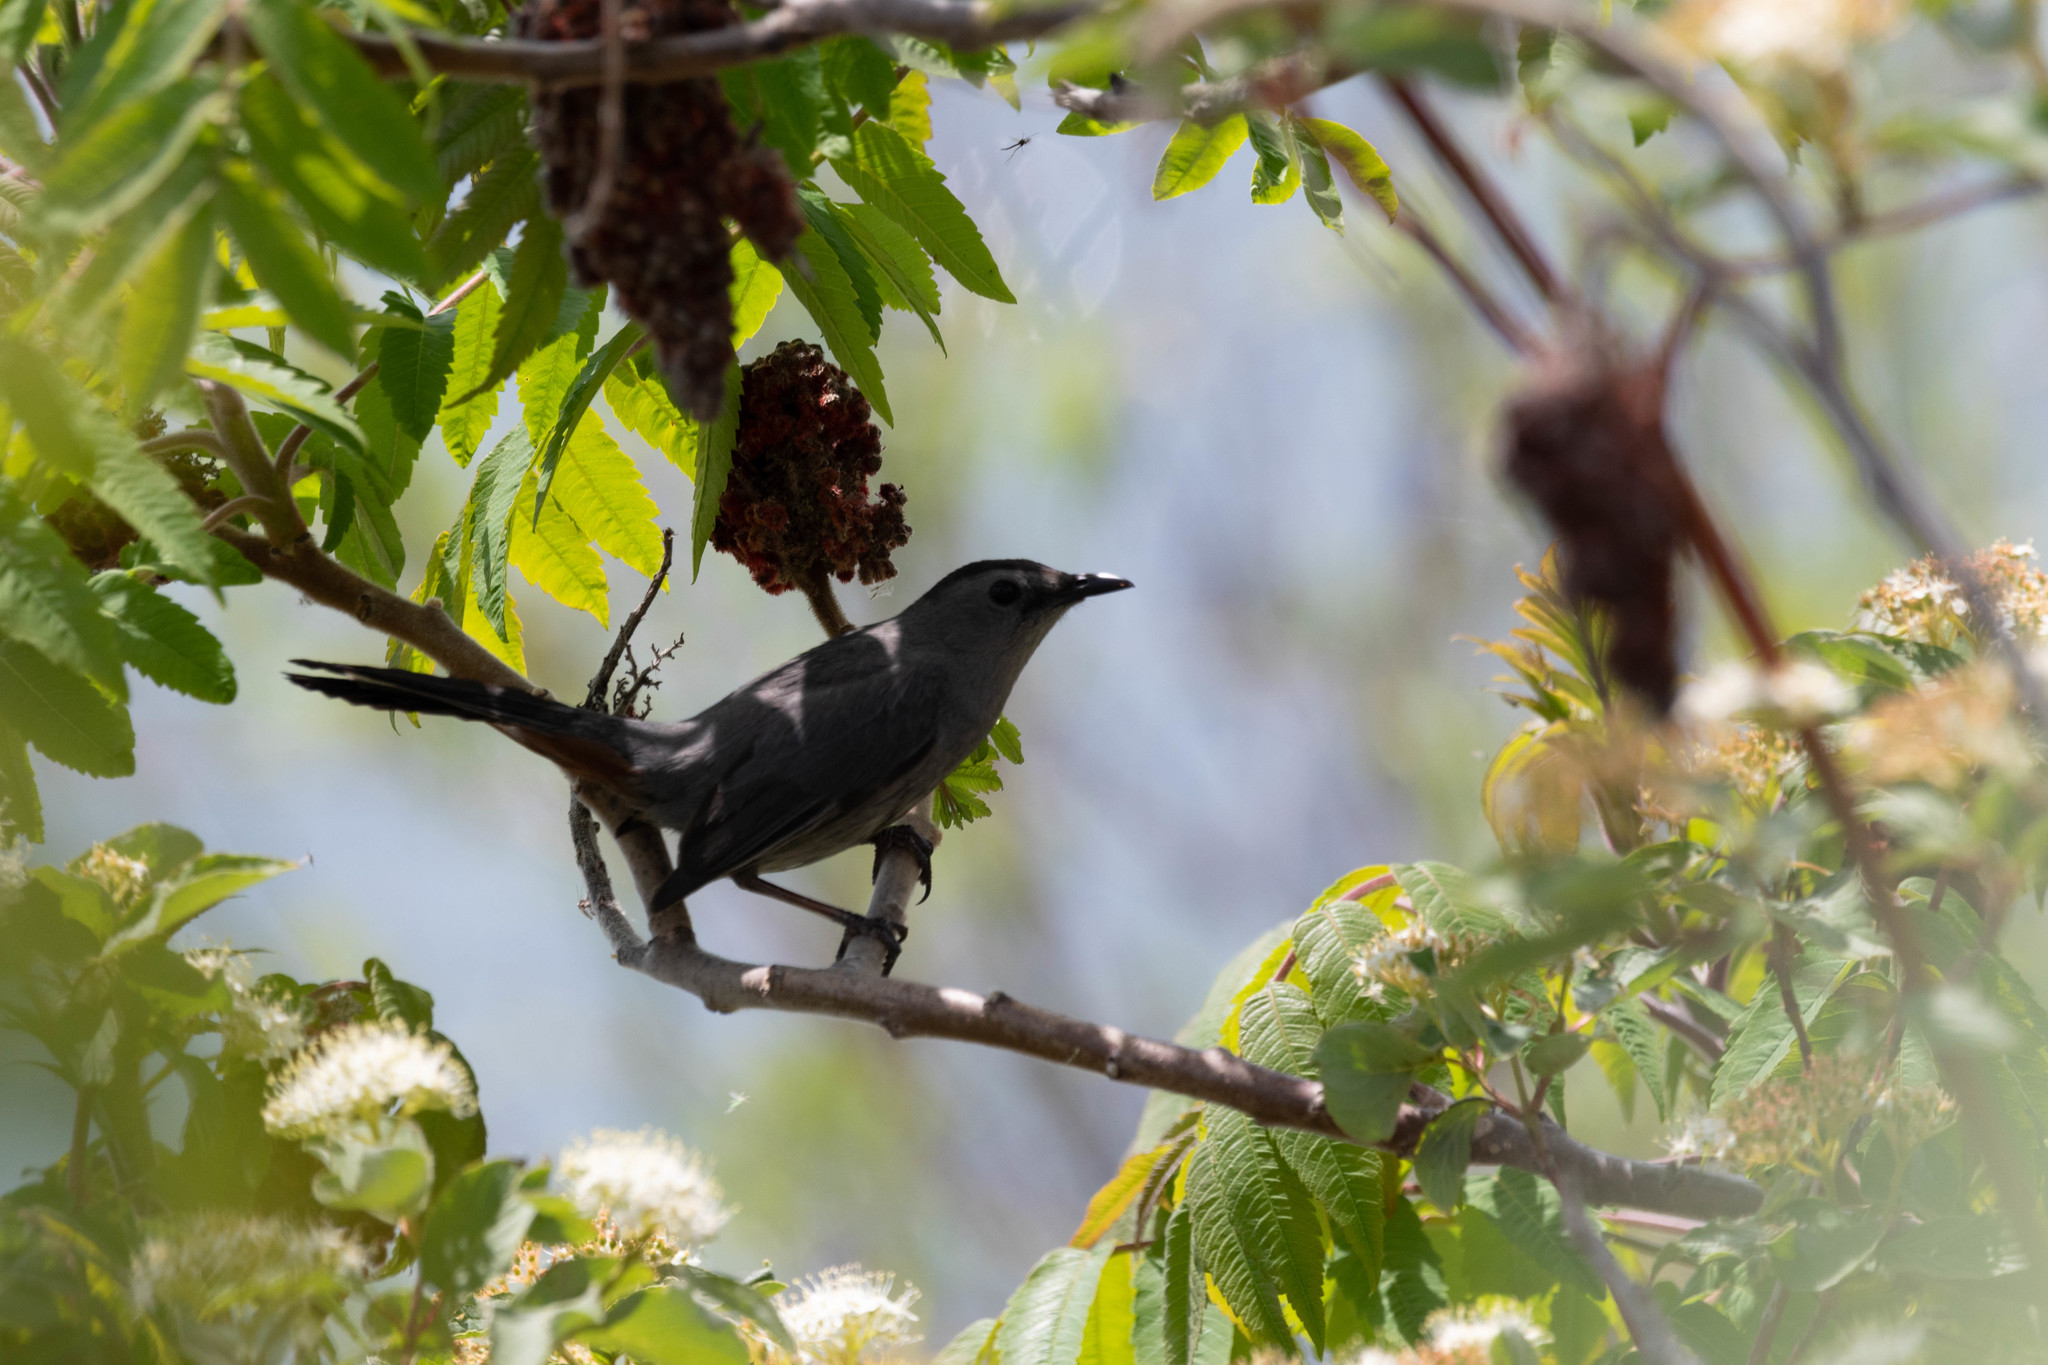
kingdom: Animalia
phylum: Chordata
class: Aves
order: Passeriformes
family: Mimidae
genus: Dumetella
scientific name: Dumetella carolinensis
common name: Gray catbird
